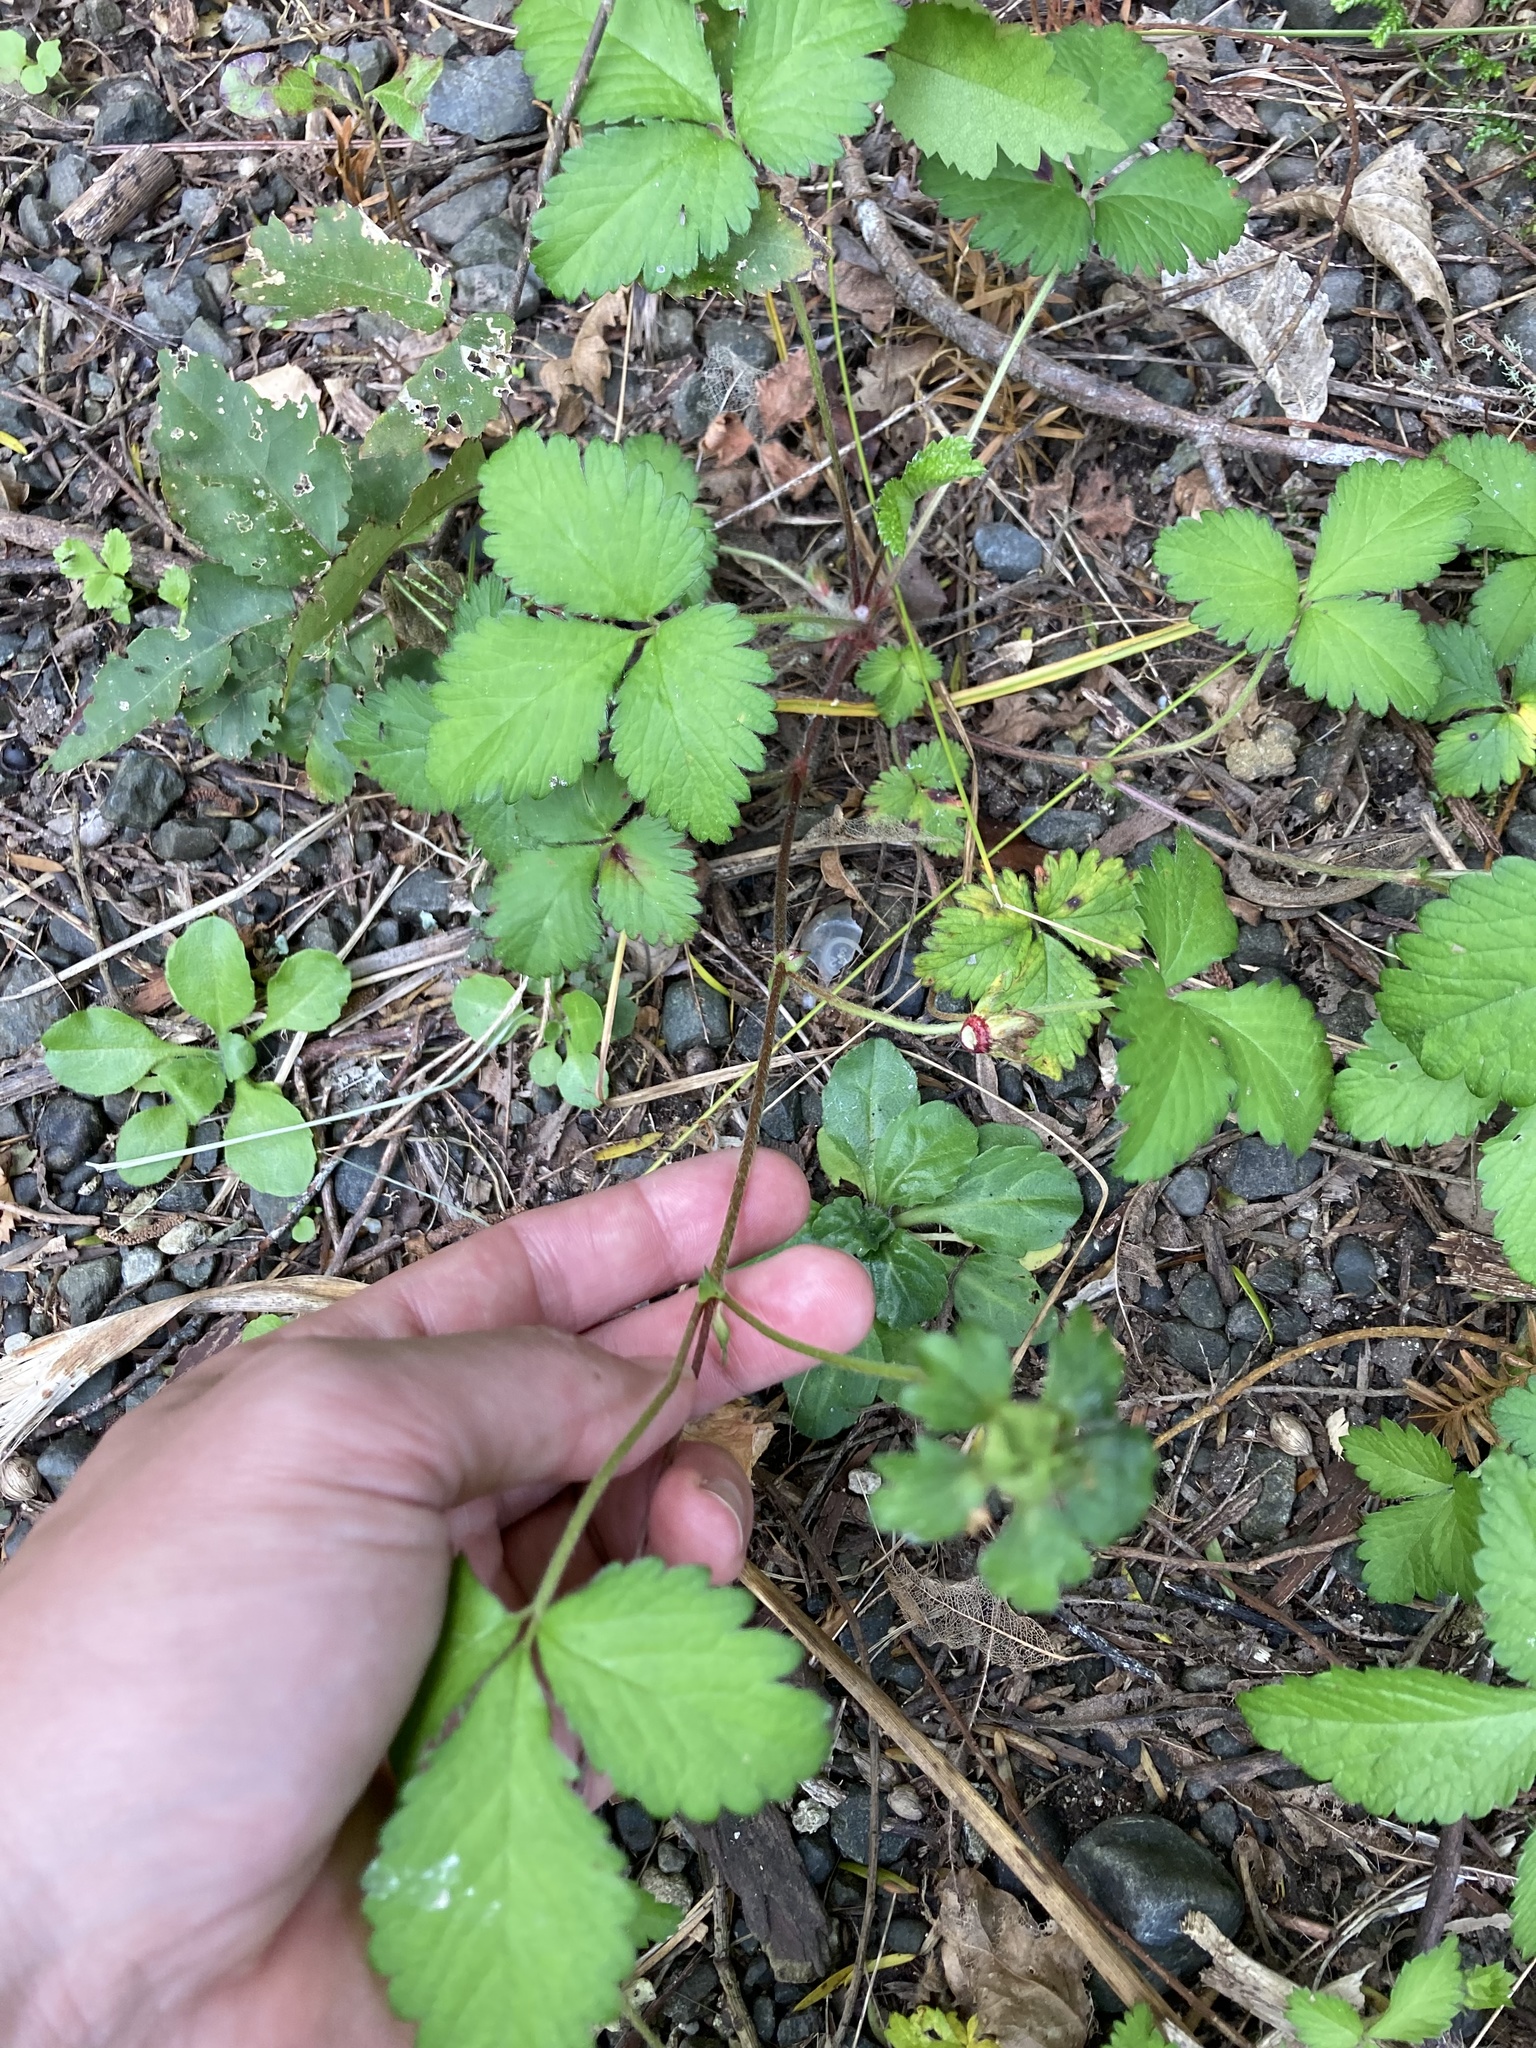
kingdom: Plantae
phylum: Tracheophyta
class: Magnoliopsida
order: Rosales
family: Rosaceae
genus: Potentilla
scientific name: Potentilla indica
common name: Yellow-flowered strawberry
